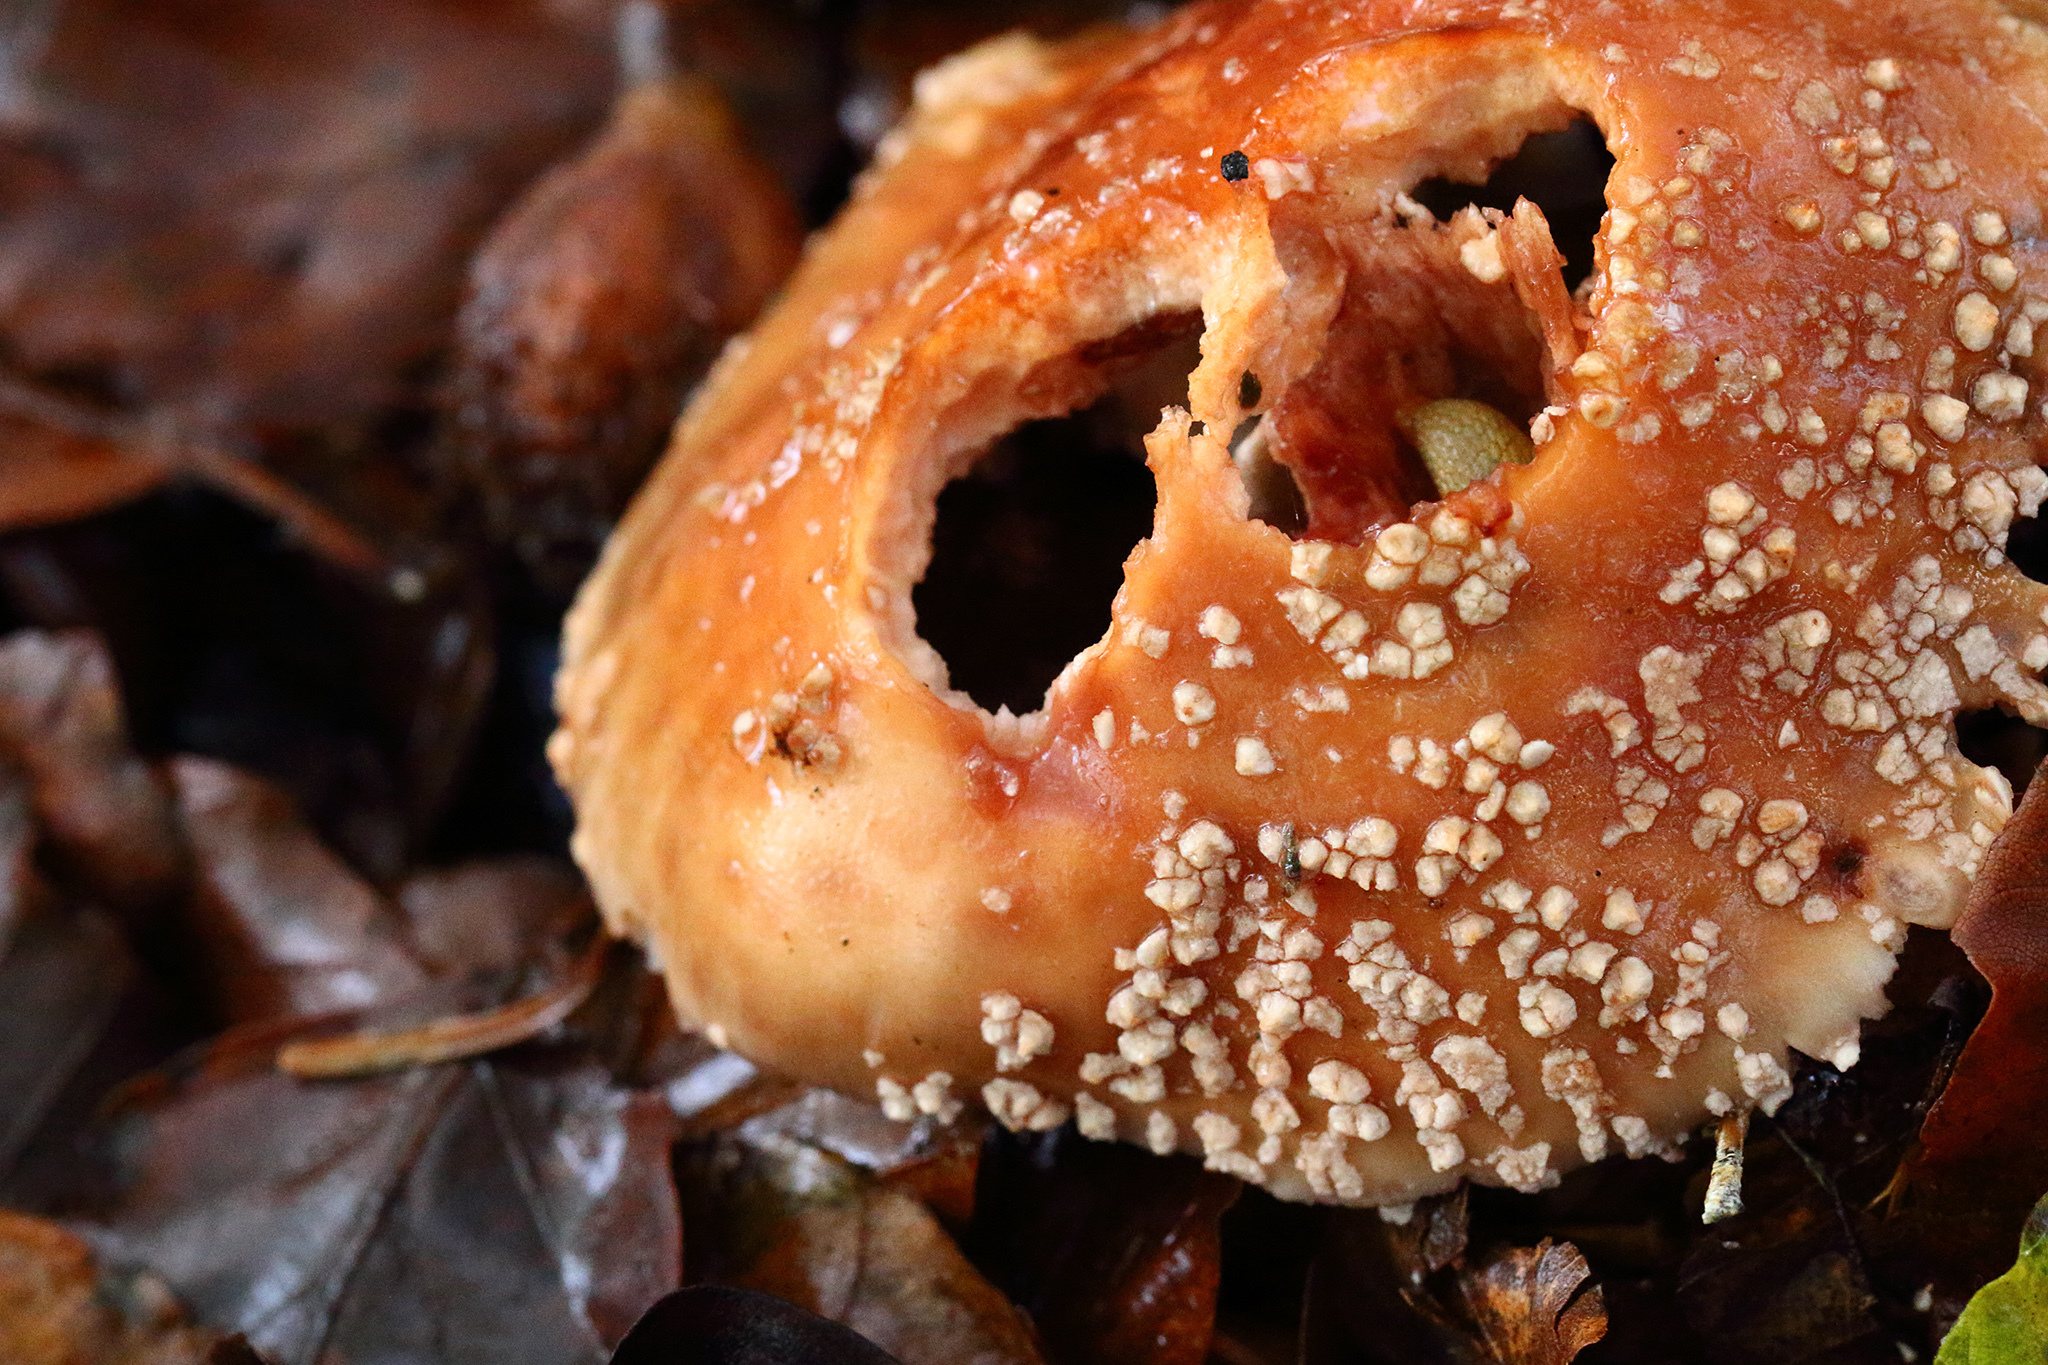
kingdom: Fungi
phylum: Basidiomycota
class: Agaricomycetes
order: Agaricales
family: Amanitaceae
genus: Amanita
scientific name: Amanita rubescens
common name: Blusher
